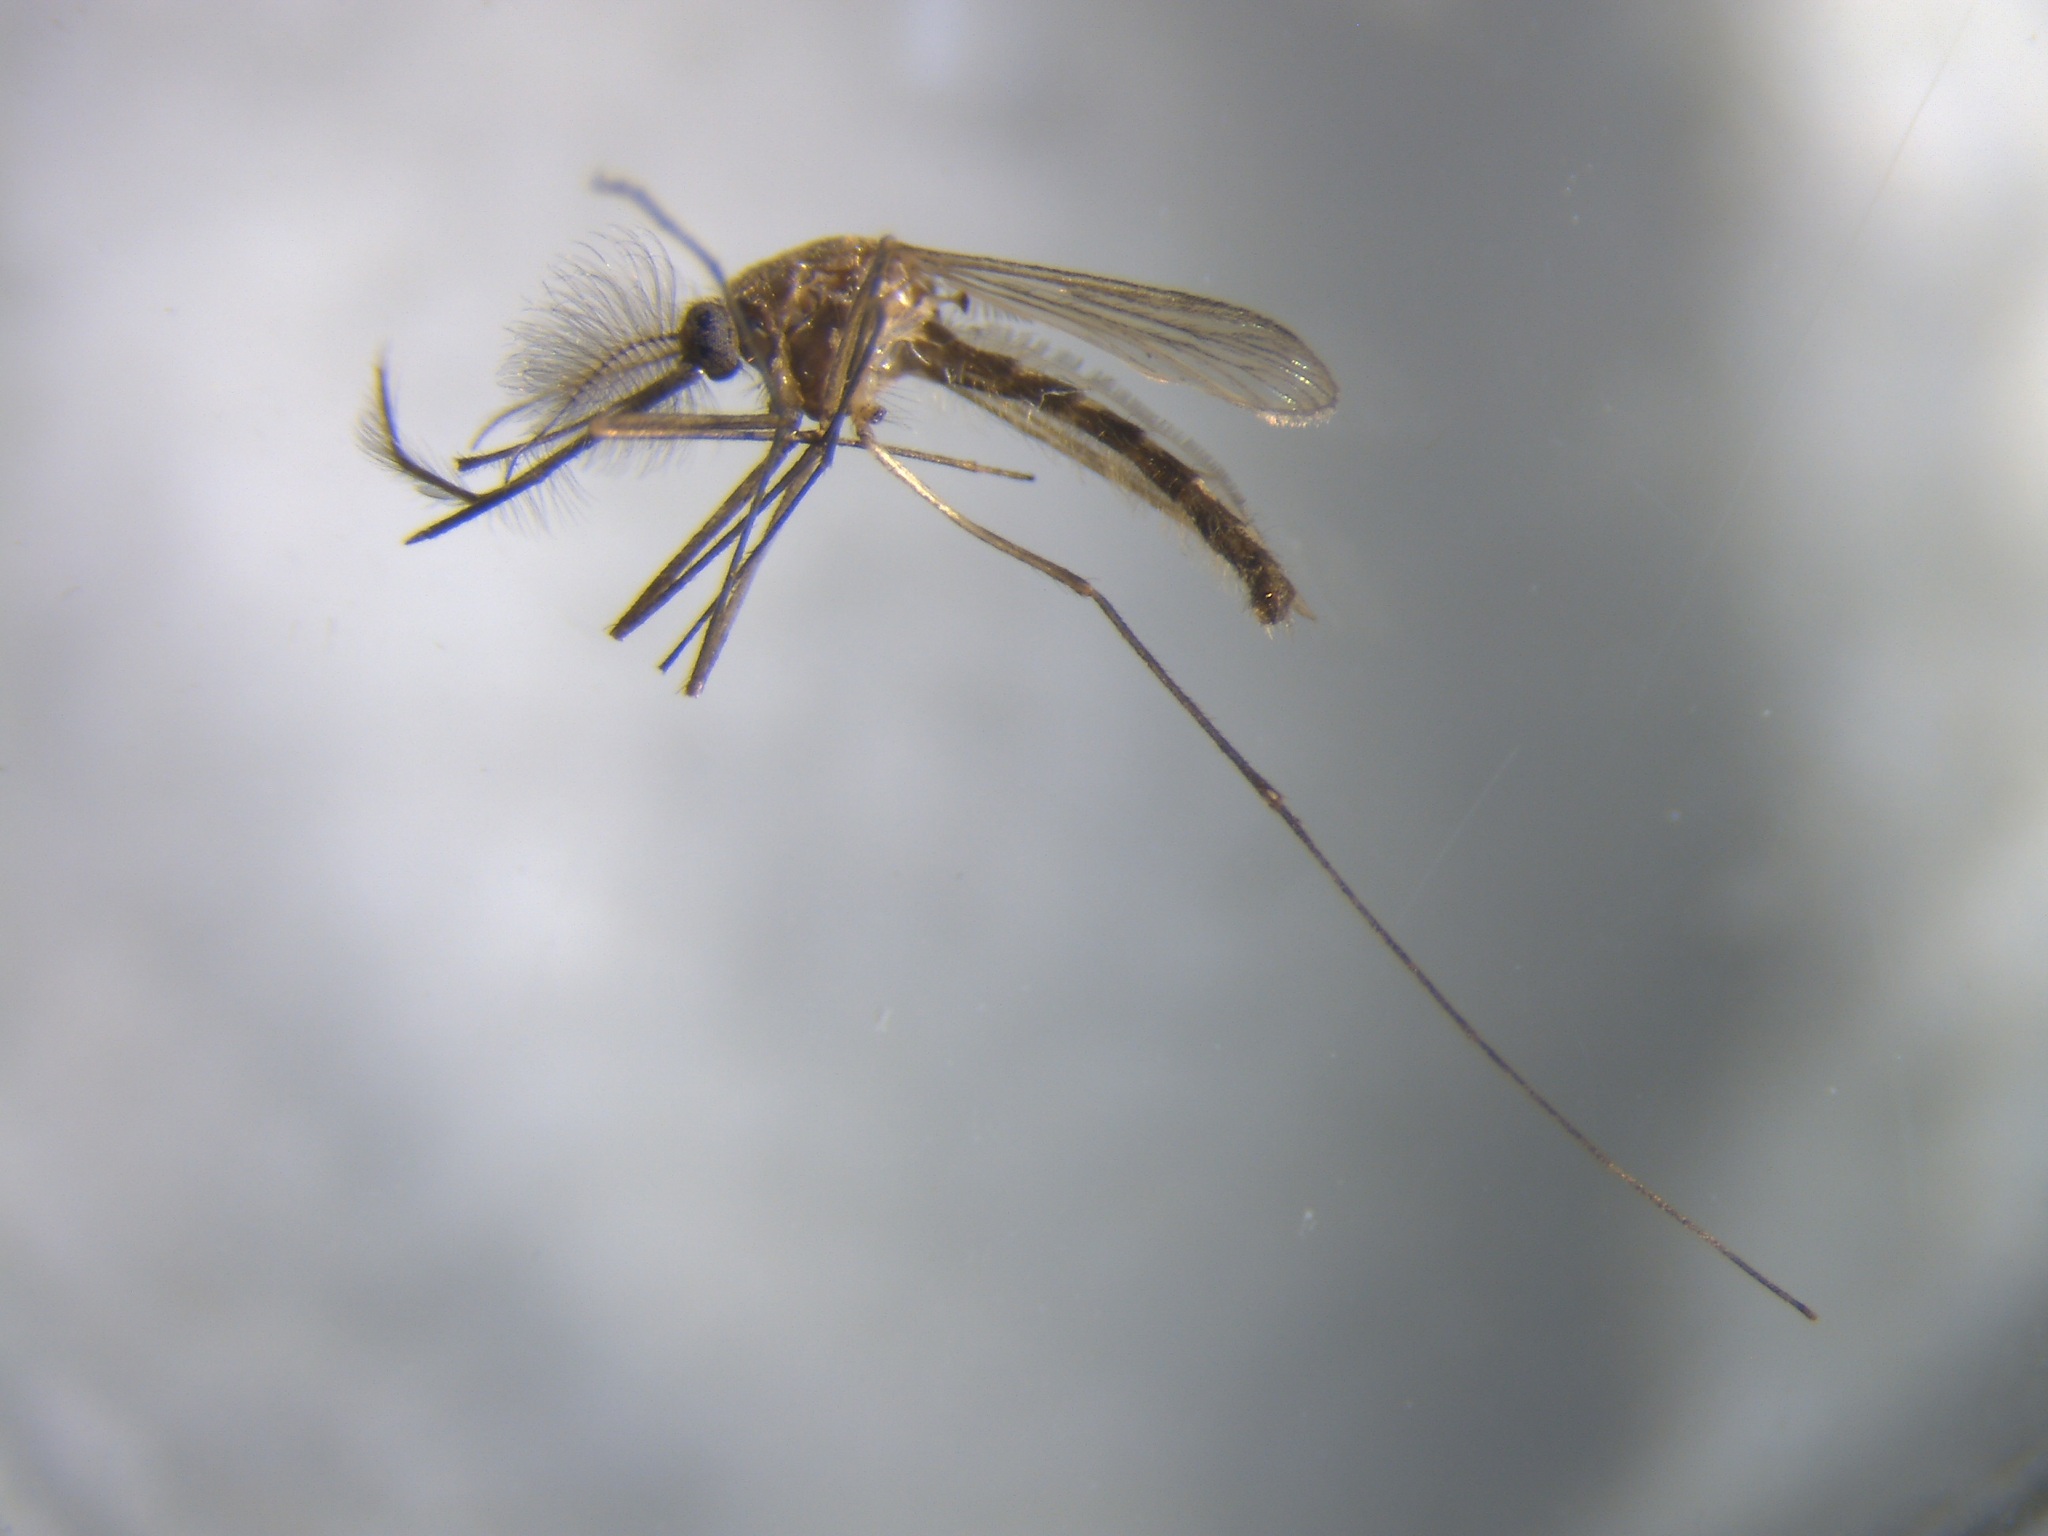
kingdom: Animalia
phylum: Arthropoda
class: Insecta
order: Diptera
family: Culicidae
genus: Culex
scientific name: Culex quinquefasciatus
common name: Southern house mosquito
